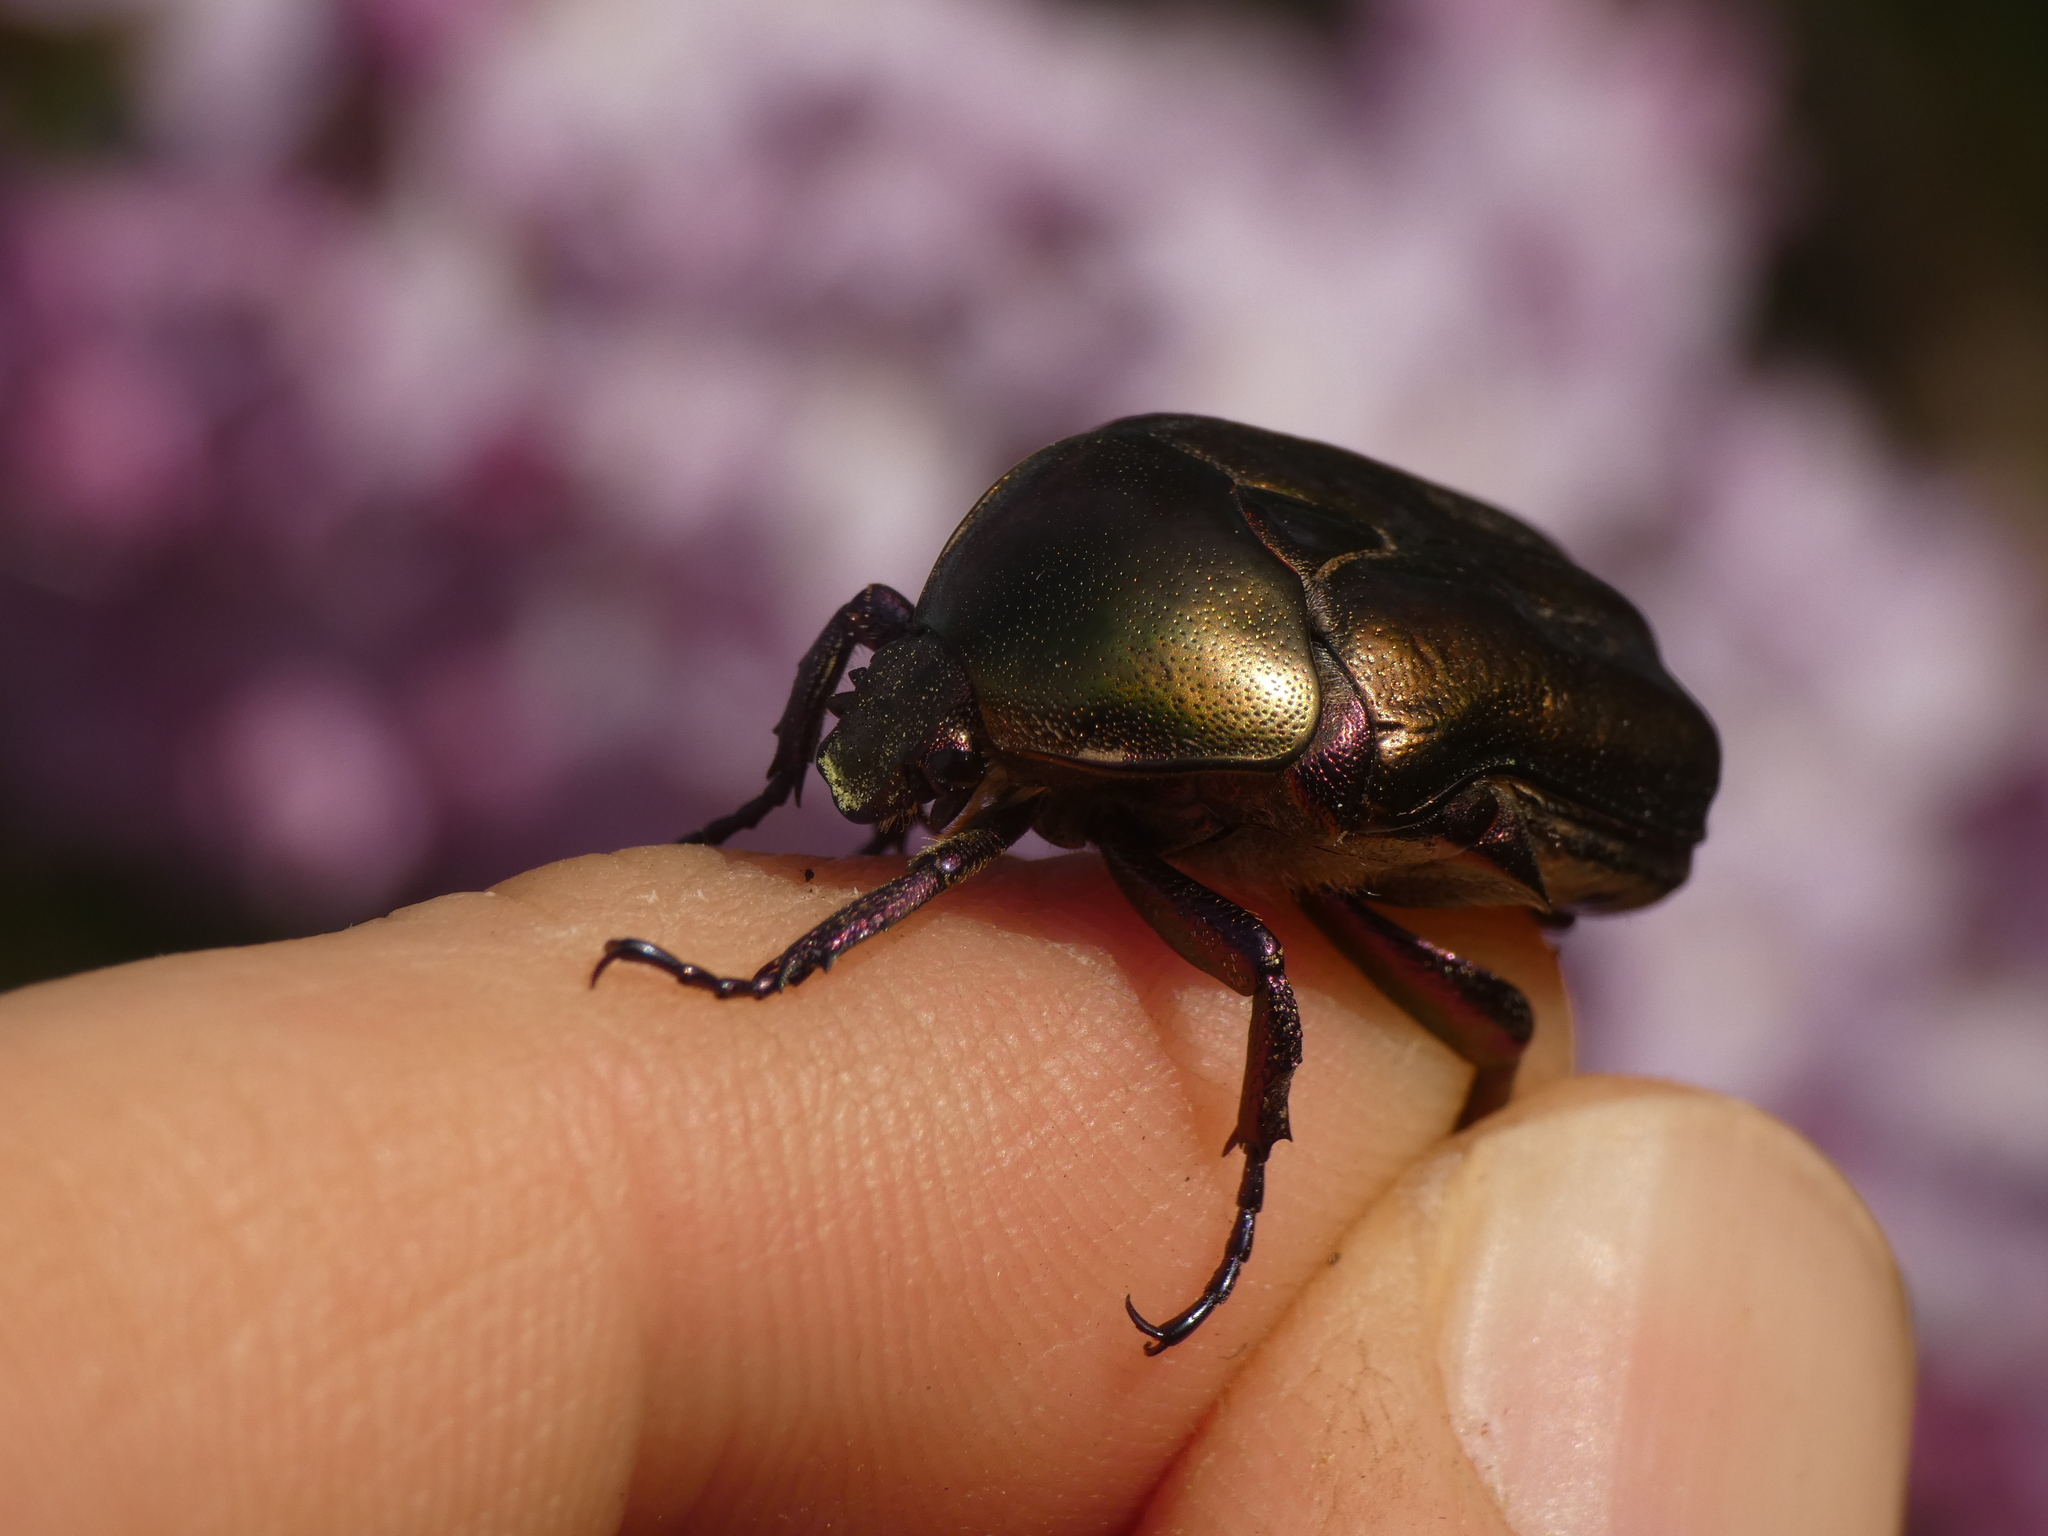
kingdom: Animalia
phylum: Arthropoda
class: Insecta
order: Coleoptera
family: Scarabaeidae
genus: Protaetia
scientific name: Protaetia cuprea
